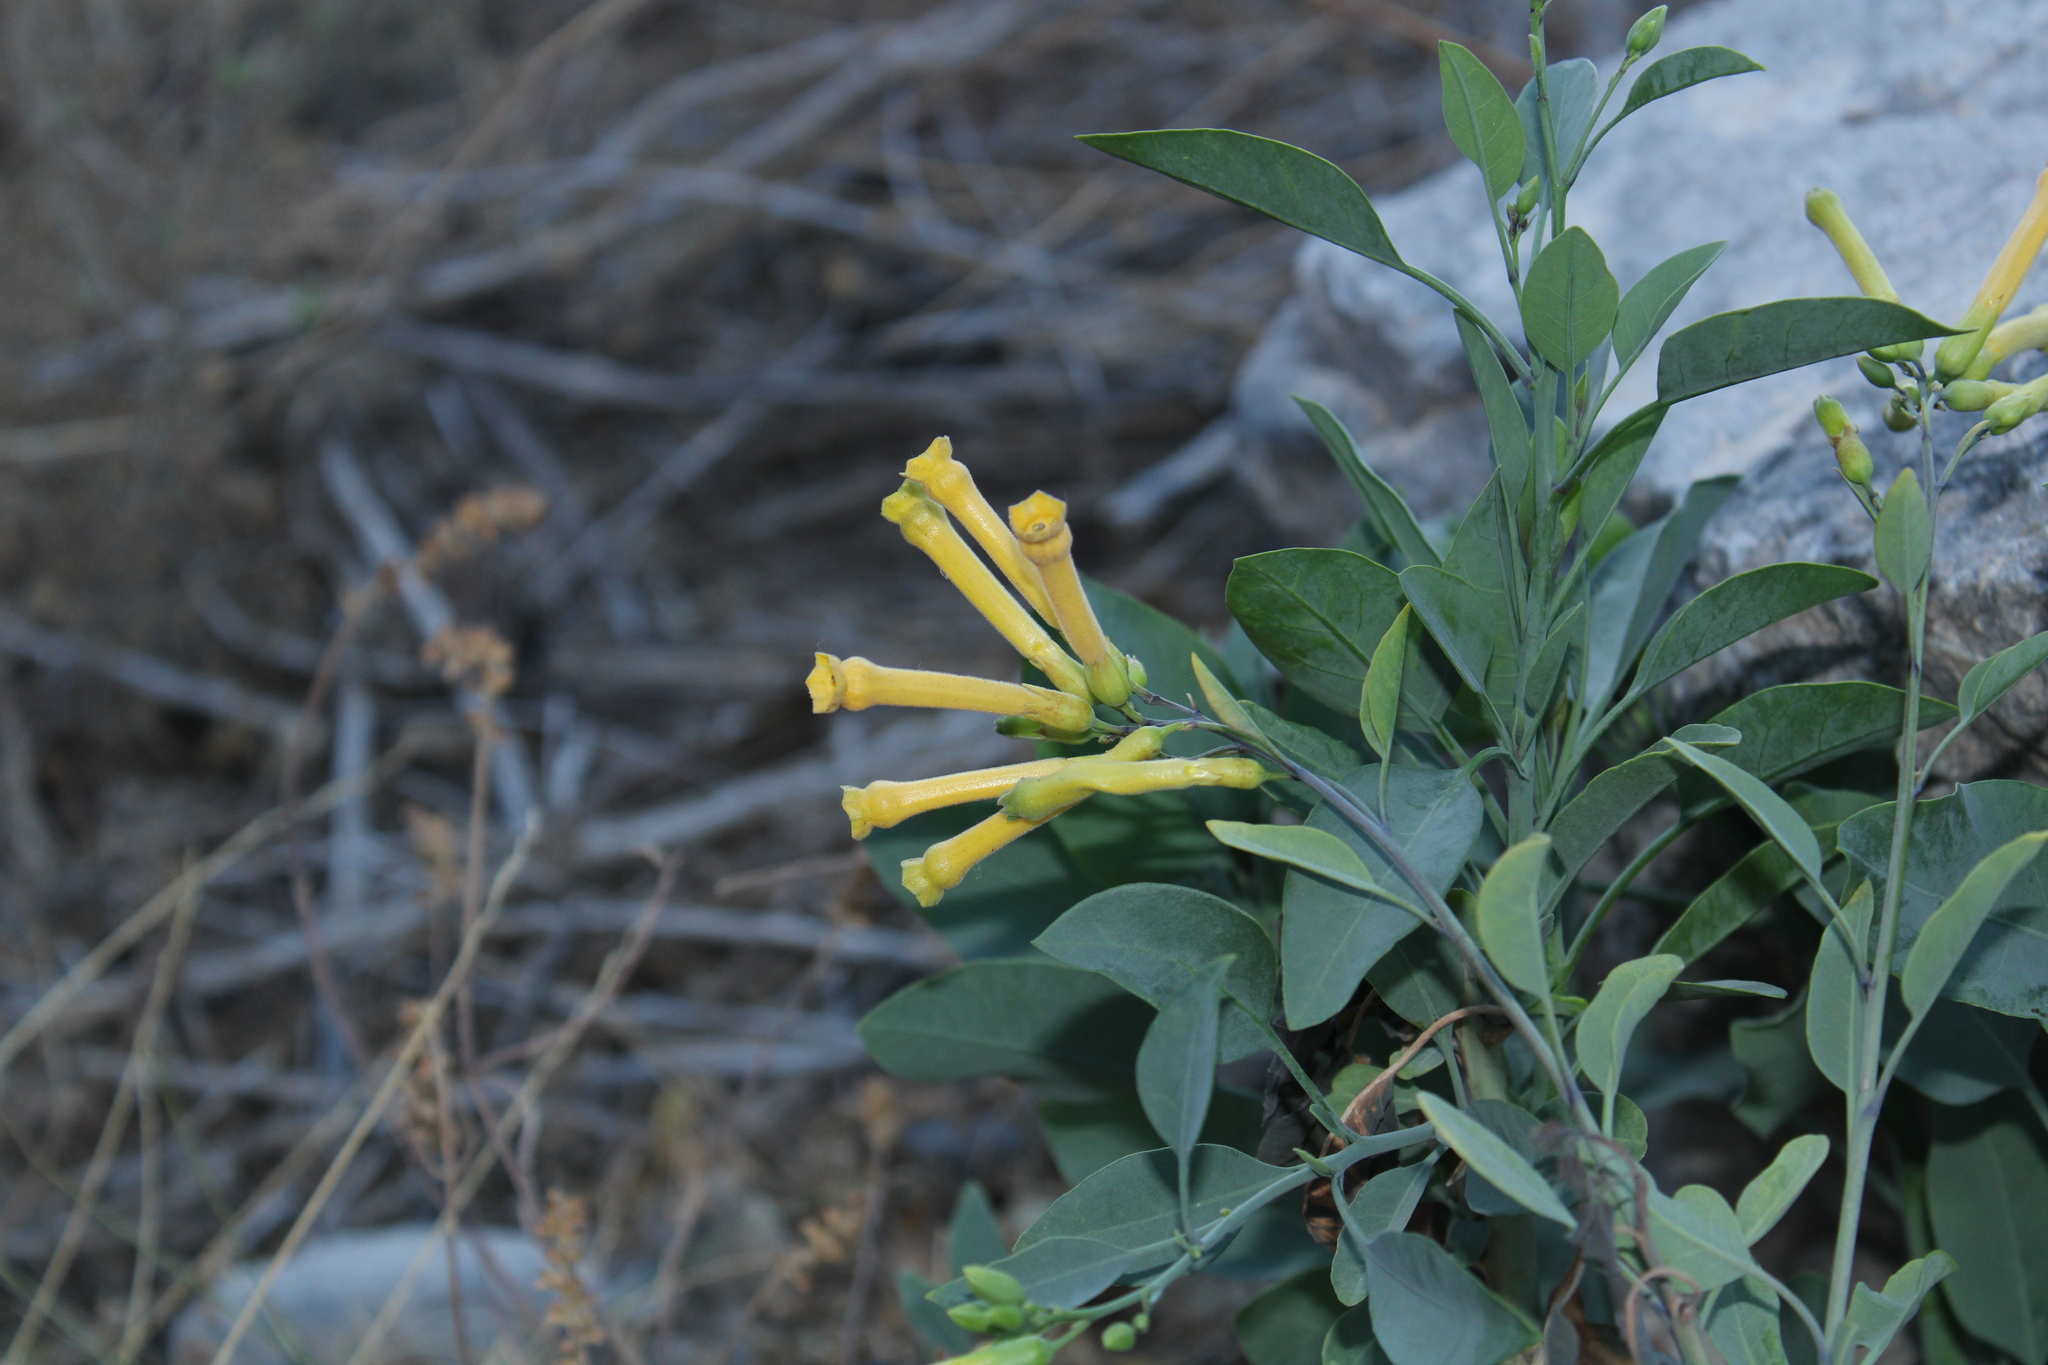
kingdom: Plantae
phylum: Tracheophyta
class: Magnoliopsida
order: Solanales
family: Solanaceae
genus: Nicotiana
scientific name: Nicotiana glauca
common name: Tree tobacco
